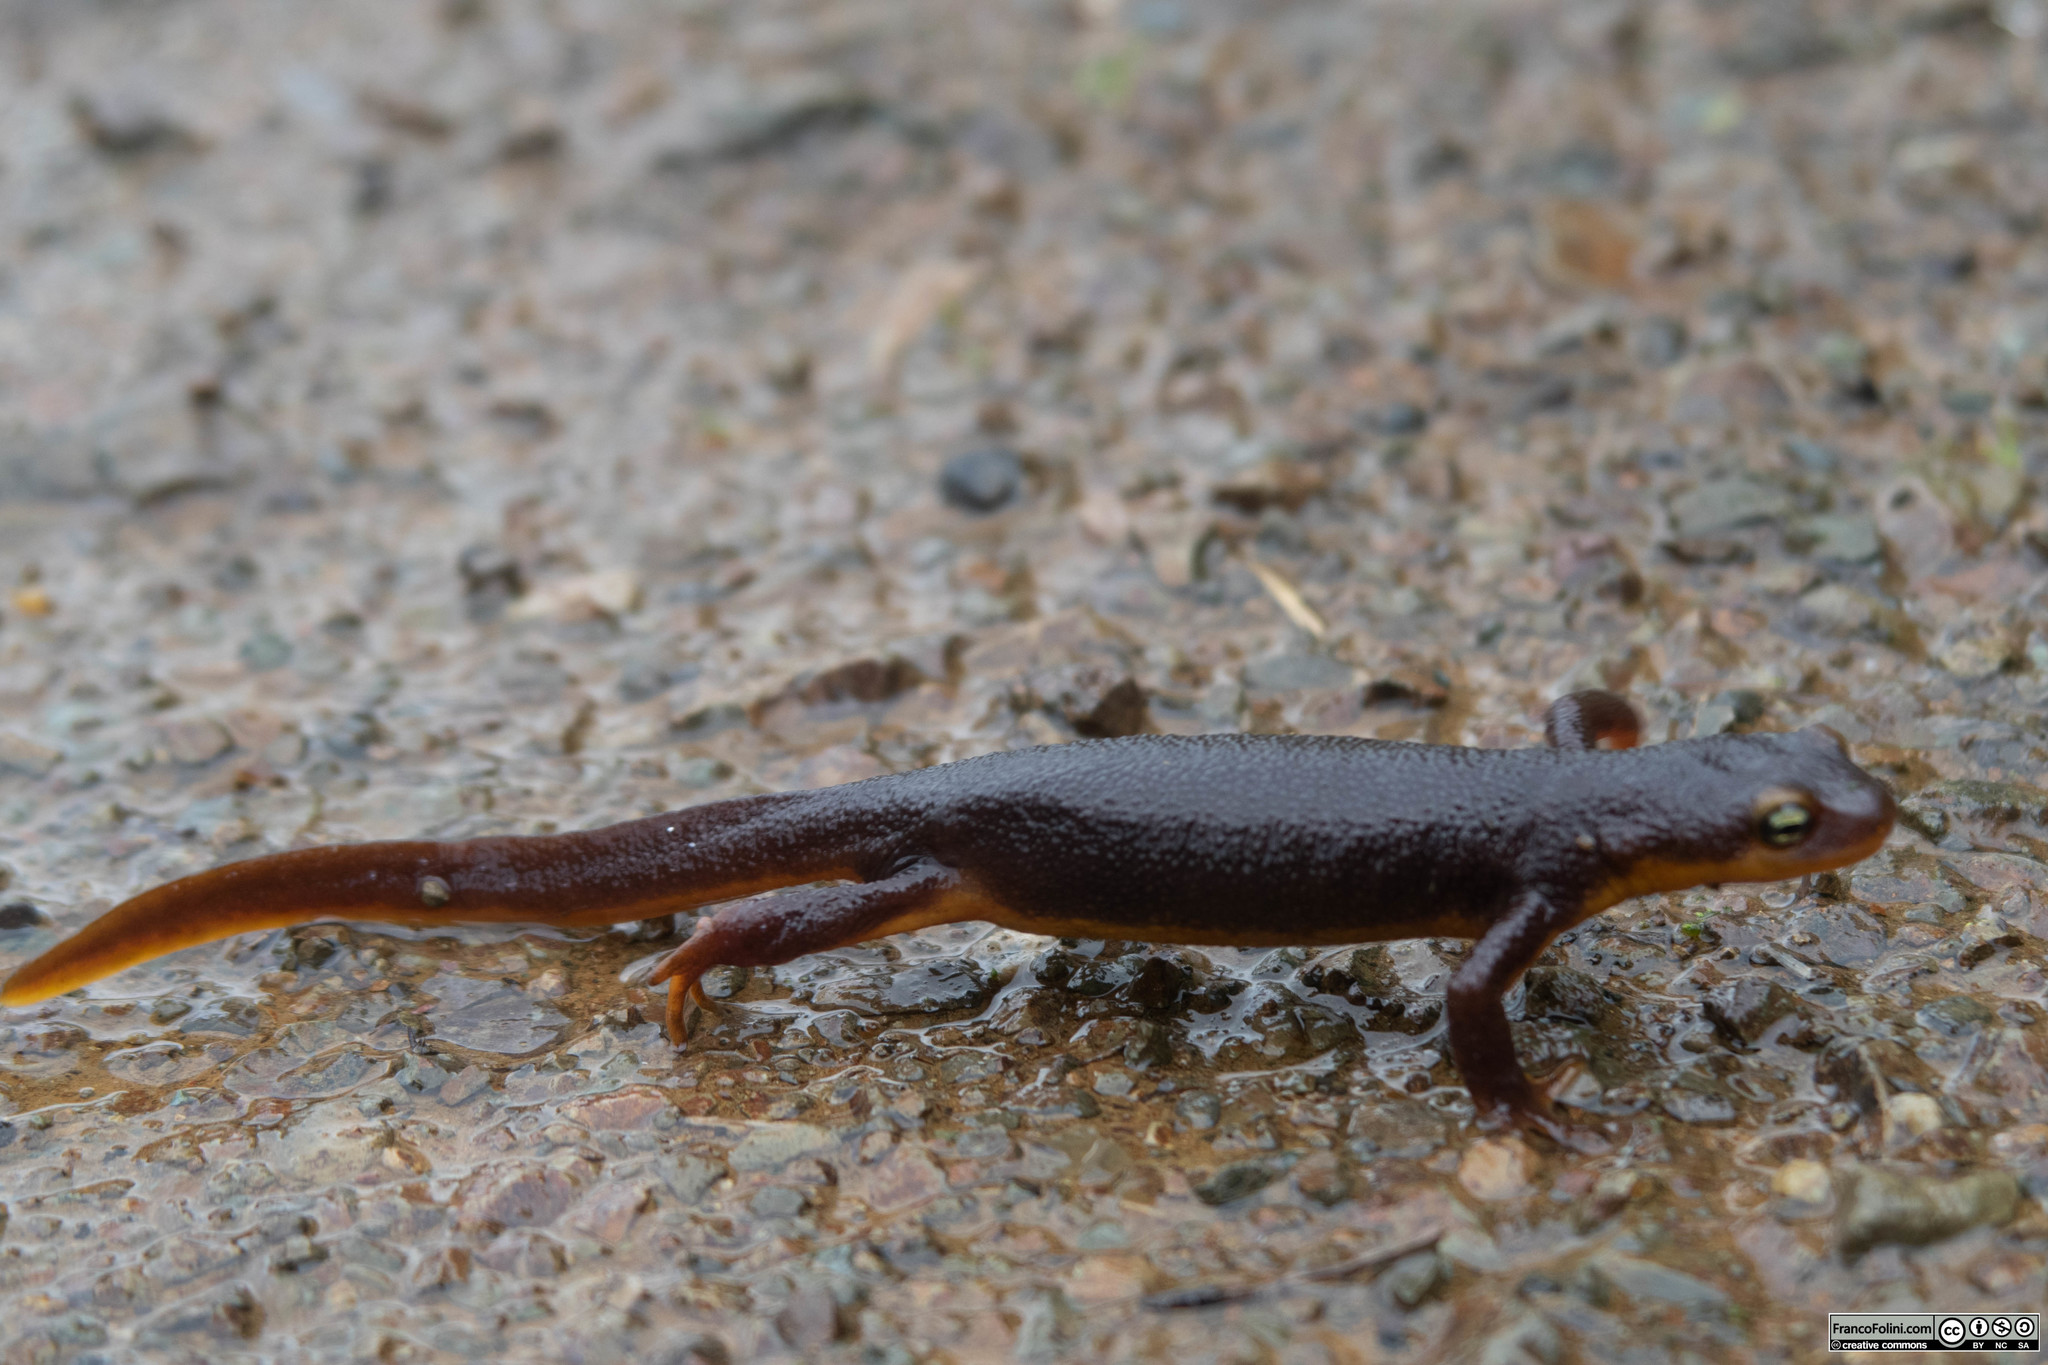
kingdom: Animalia
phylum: Chordata
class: Amphibia
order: Caudata
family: Salamandridae
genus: Taricha
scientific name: Taricha torosa
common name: California newt
